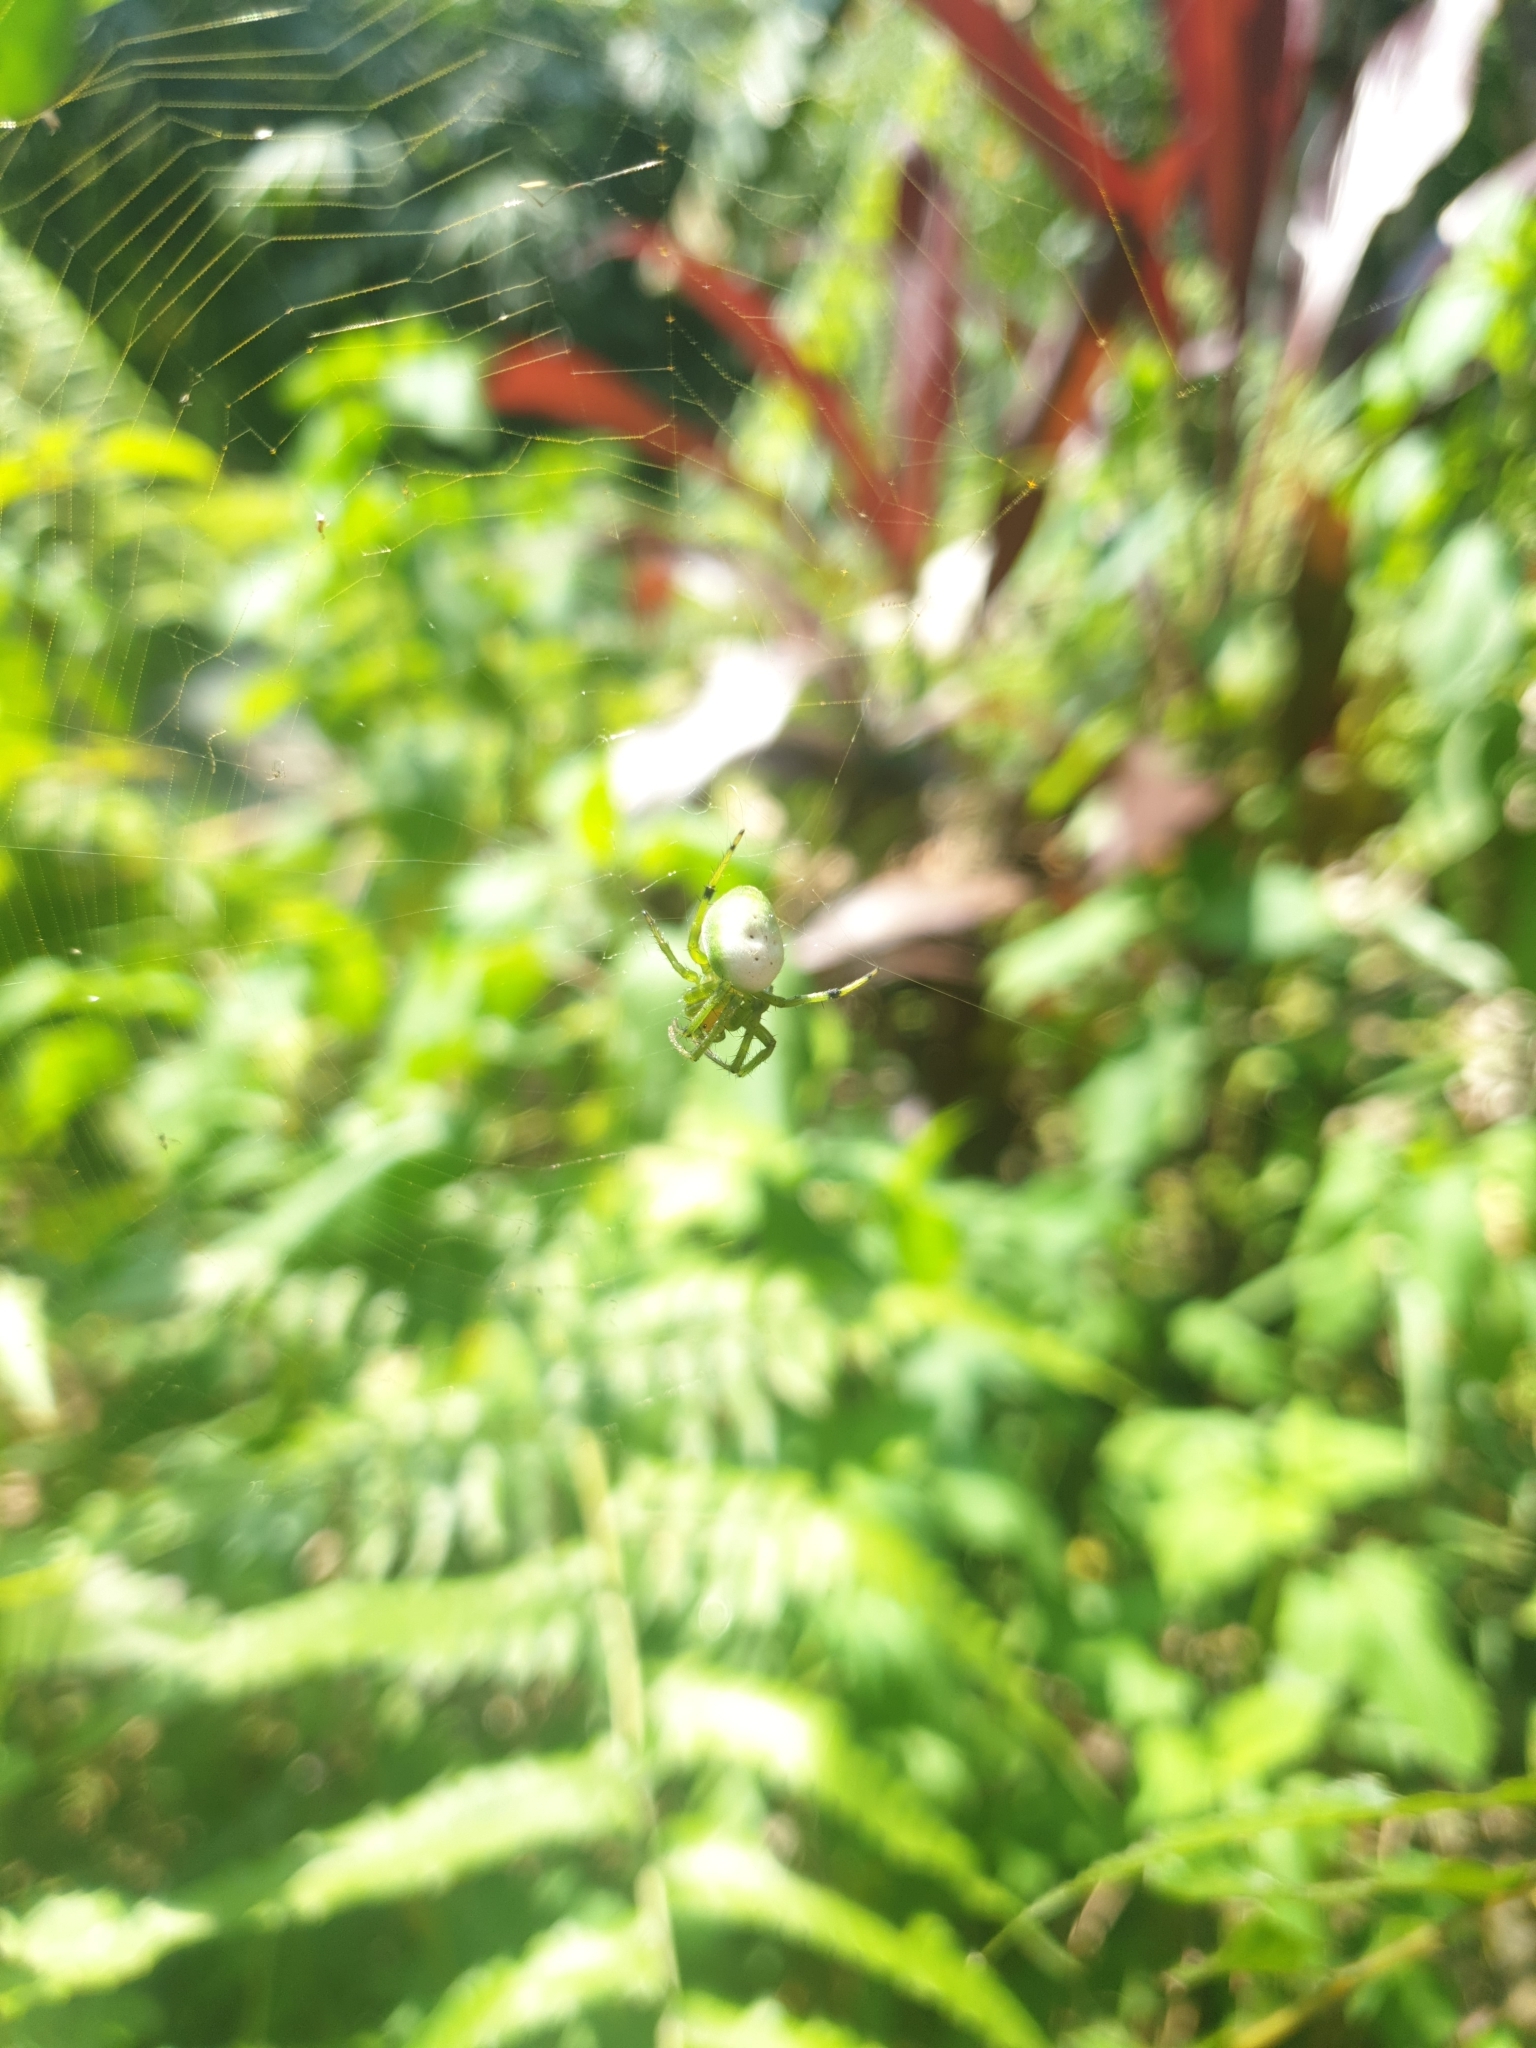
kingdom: Animalia
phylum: Arthropoda
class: Arachnida
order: Araneae
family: Araneidae
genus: Aoaraneus
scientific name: Aoaraneus pentagrammicus
